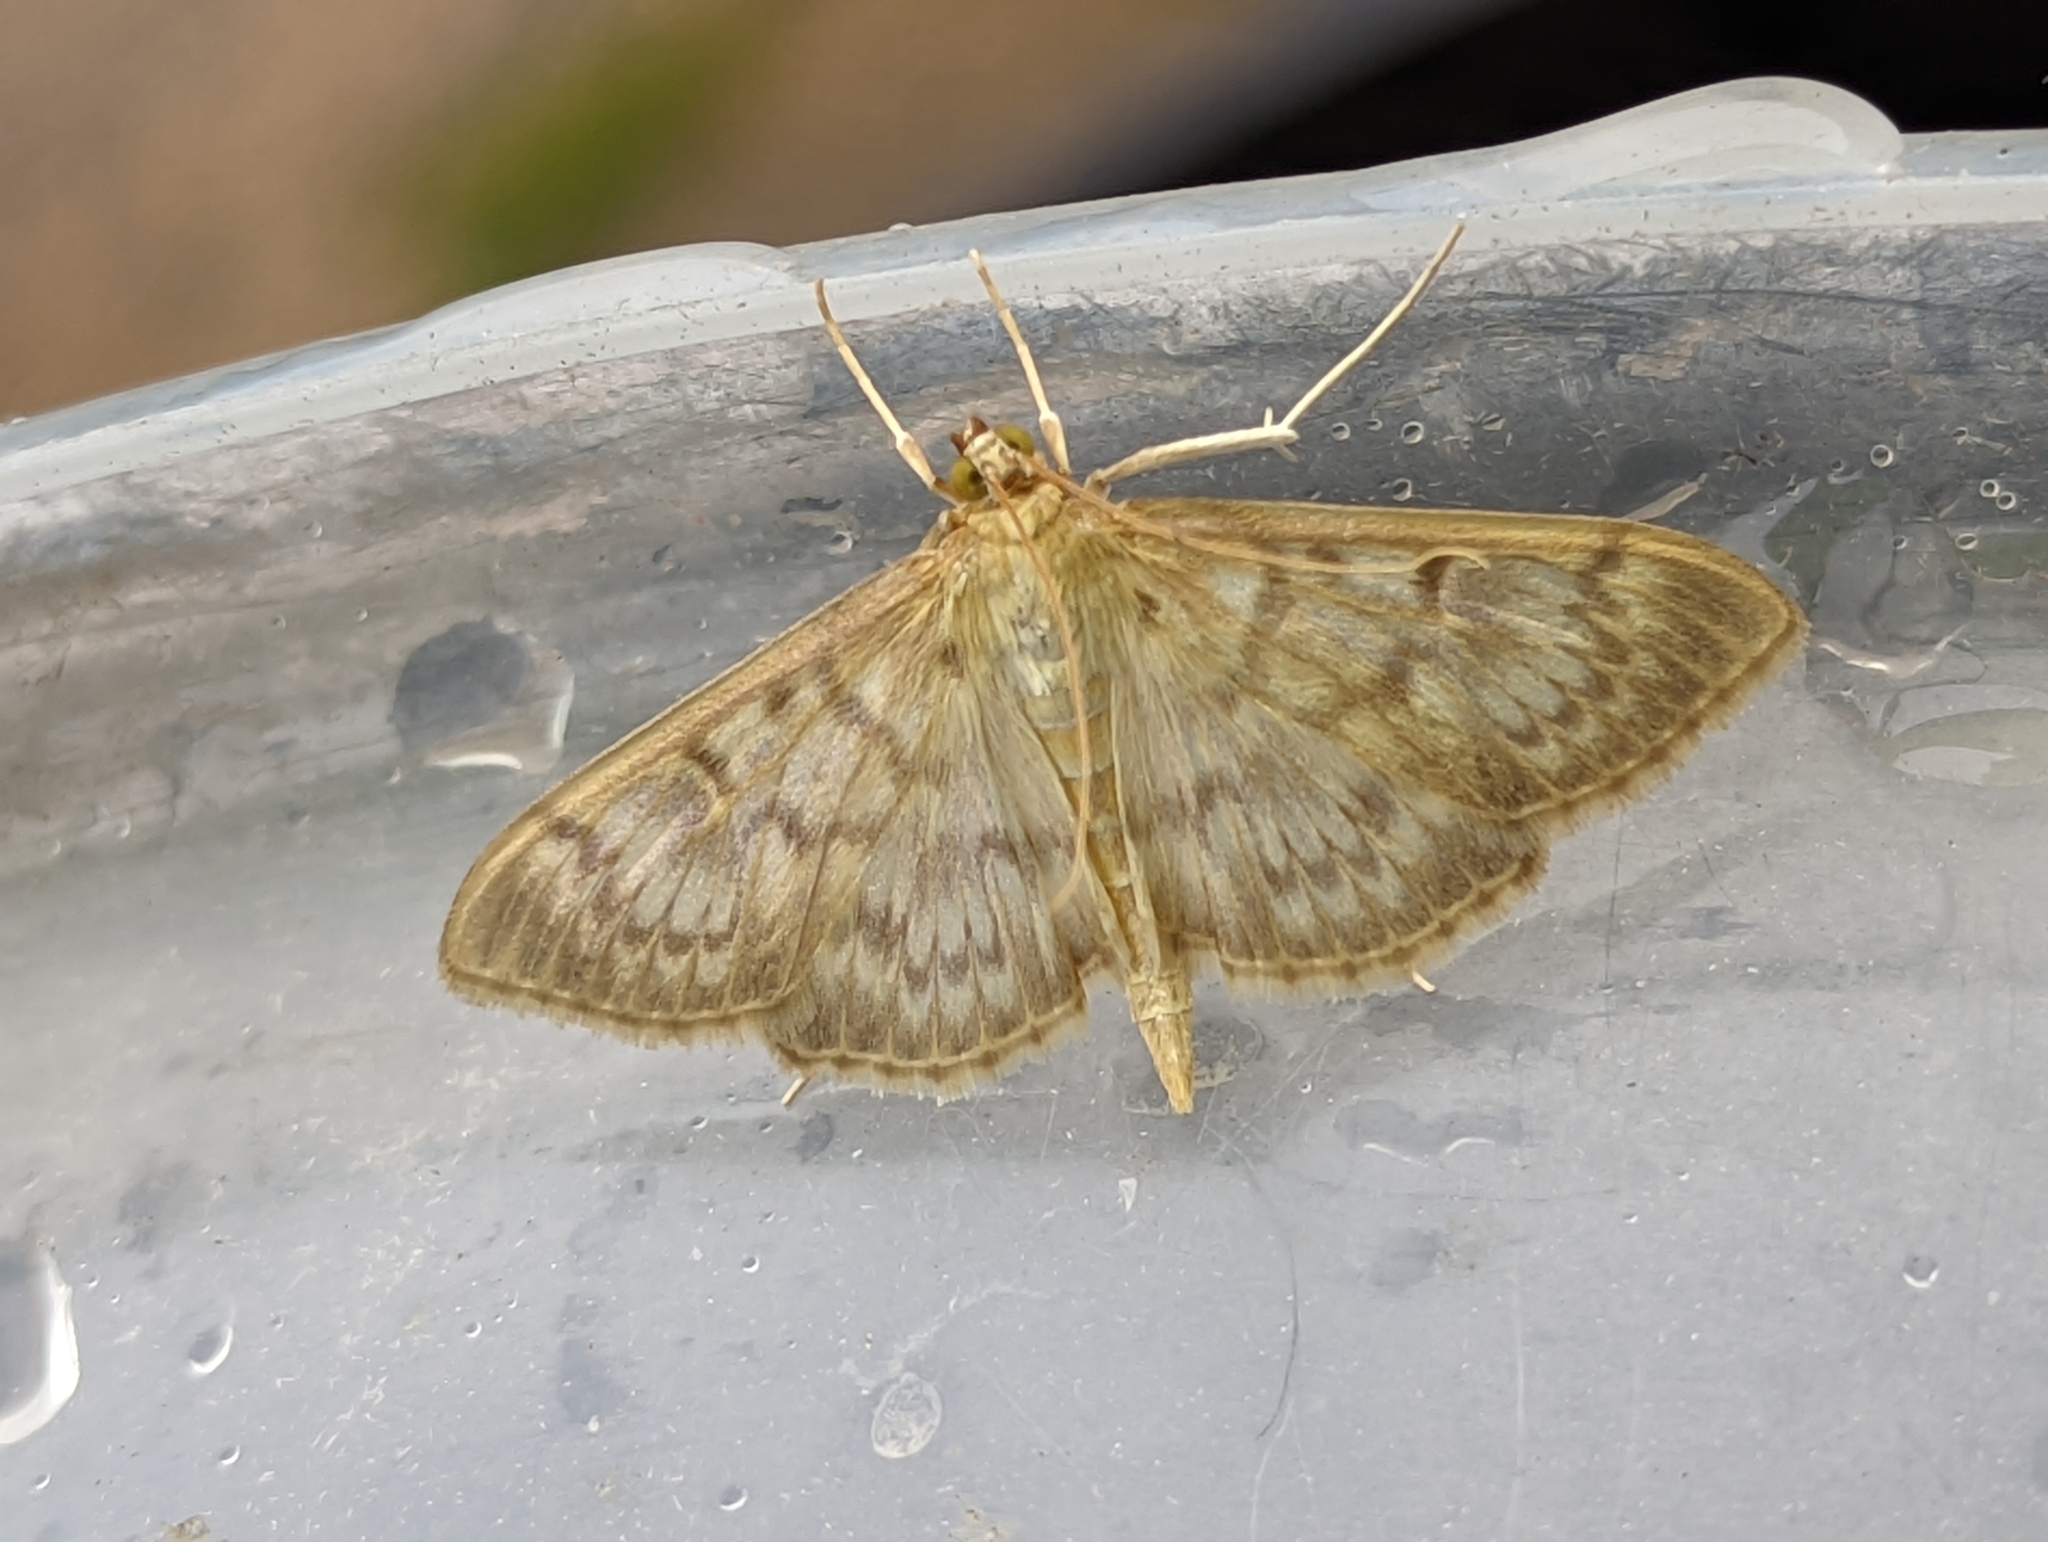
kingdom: Animalia
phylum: Arthropoda
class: Insecta
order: Lepidoptera
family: Crambidae
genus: Patania
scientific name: Patania ruralis
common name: Mother of pearl
